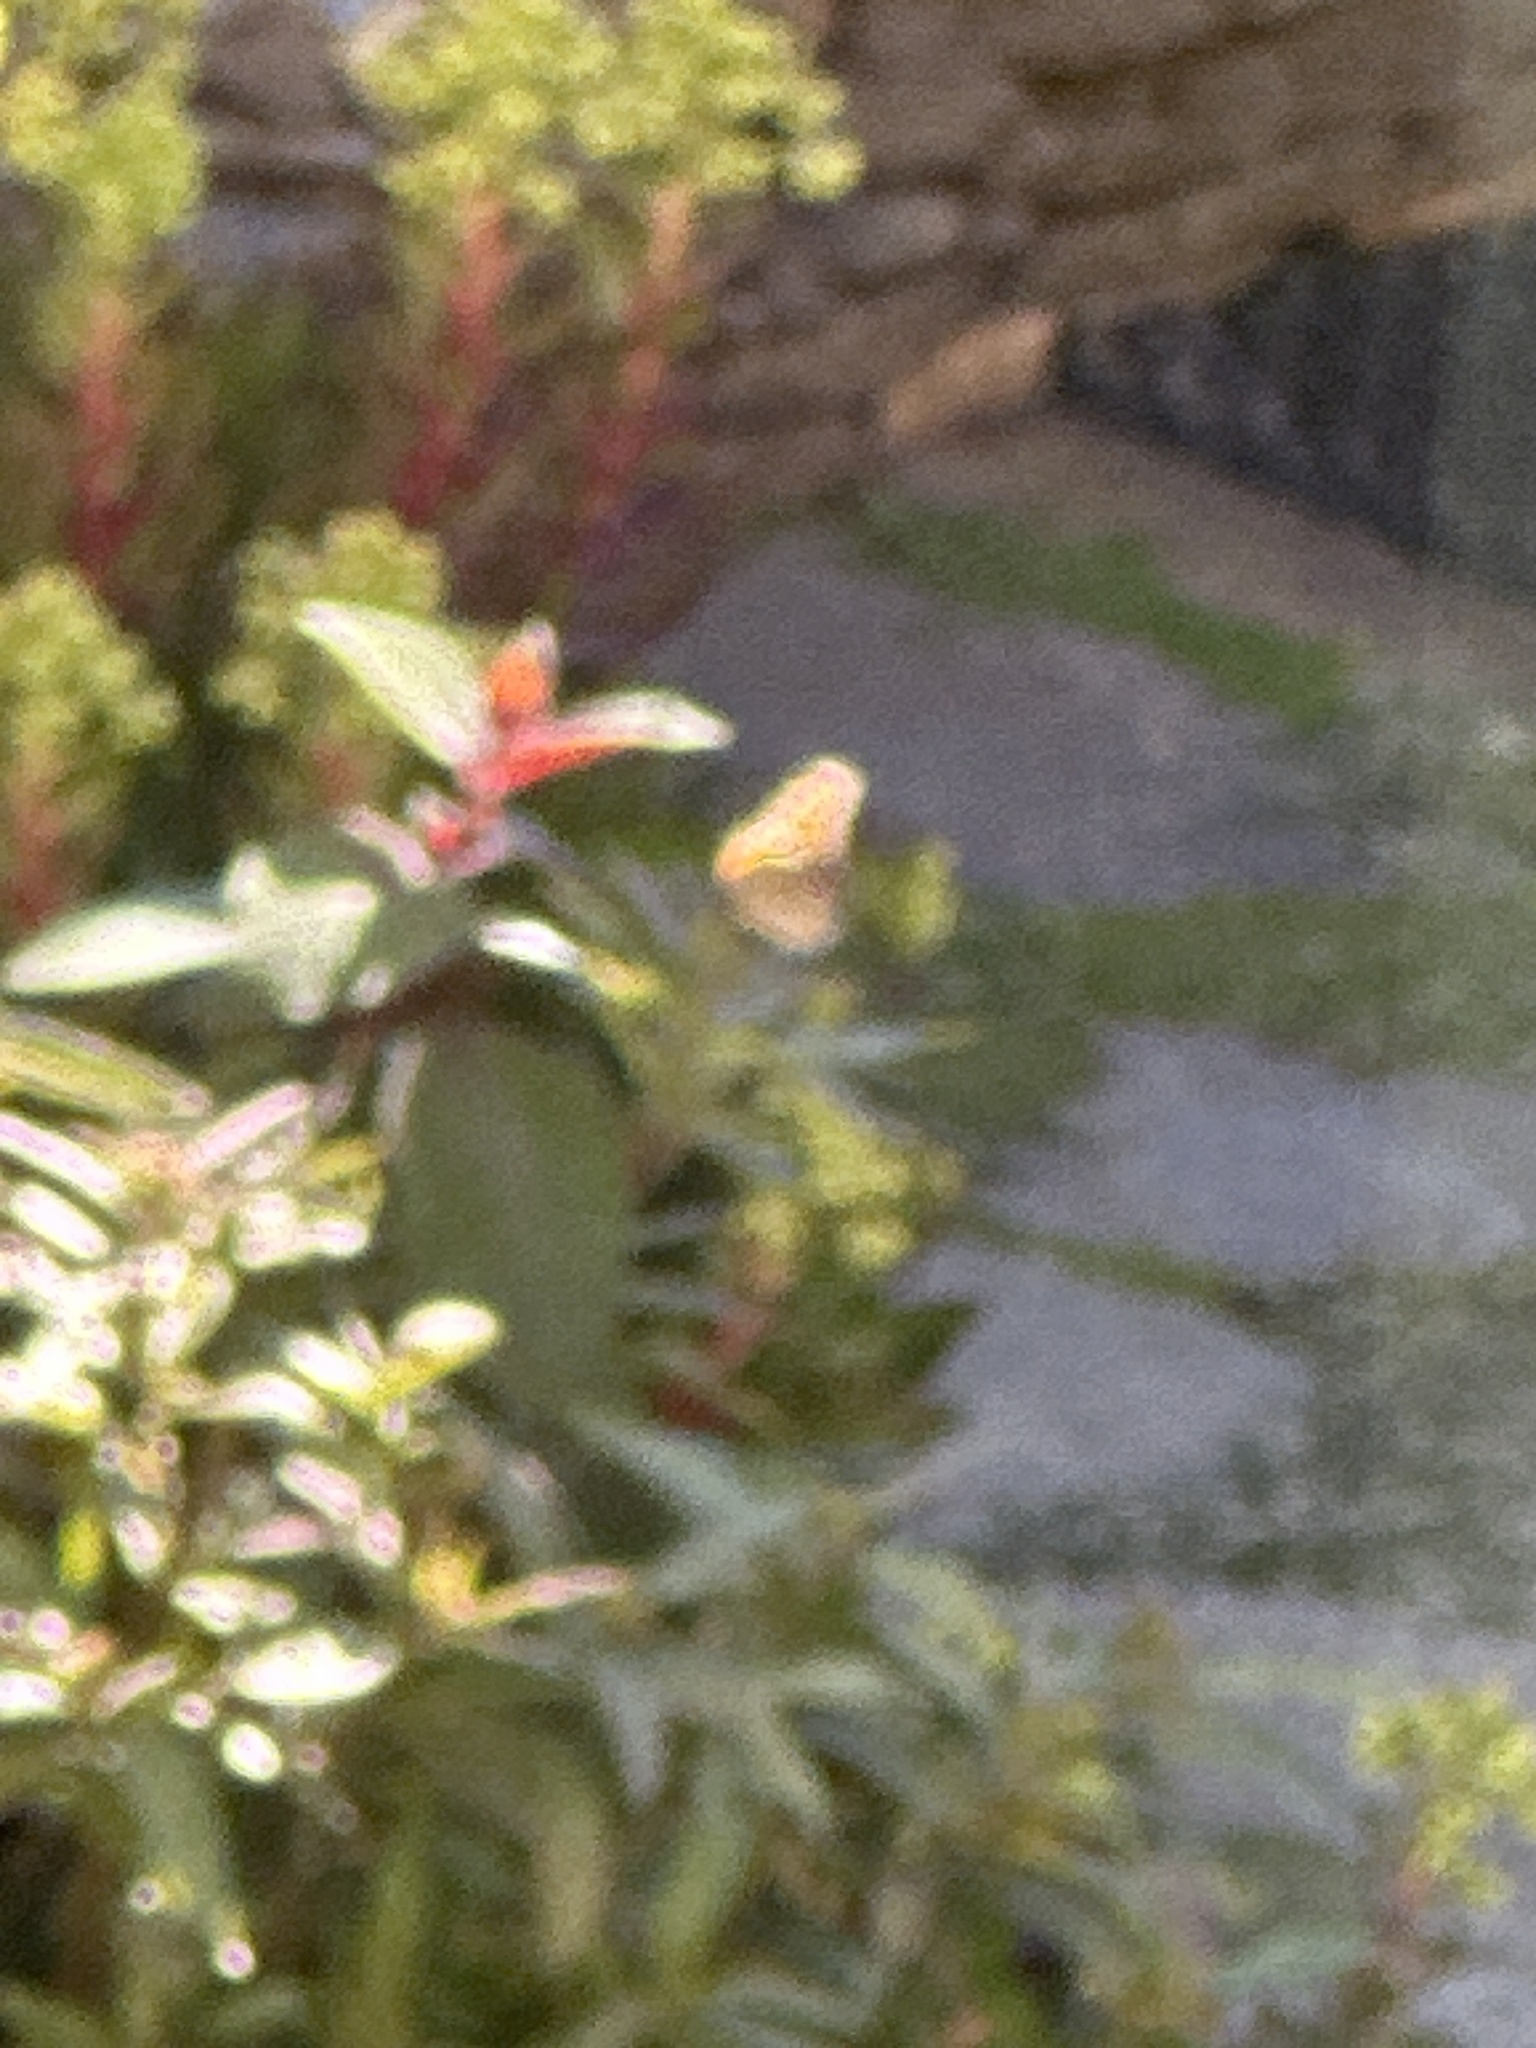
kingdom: Animalia
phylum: Arthropoda
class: Insecta
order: Lepidoptera
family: Nymphalidae
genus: Danaus
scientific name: Danaus plexippus
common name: Monarch
